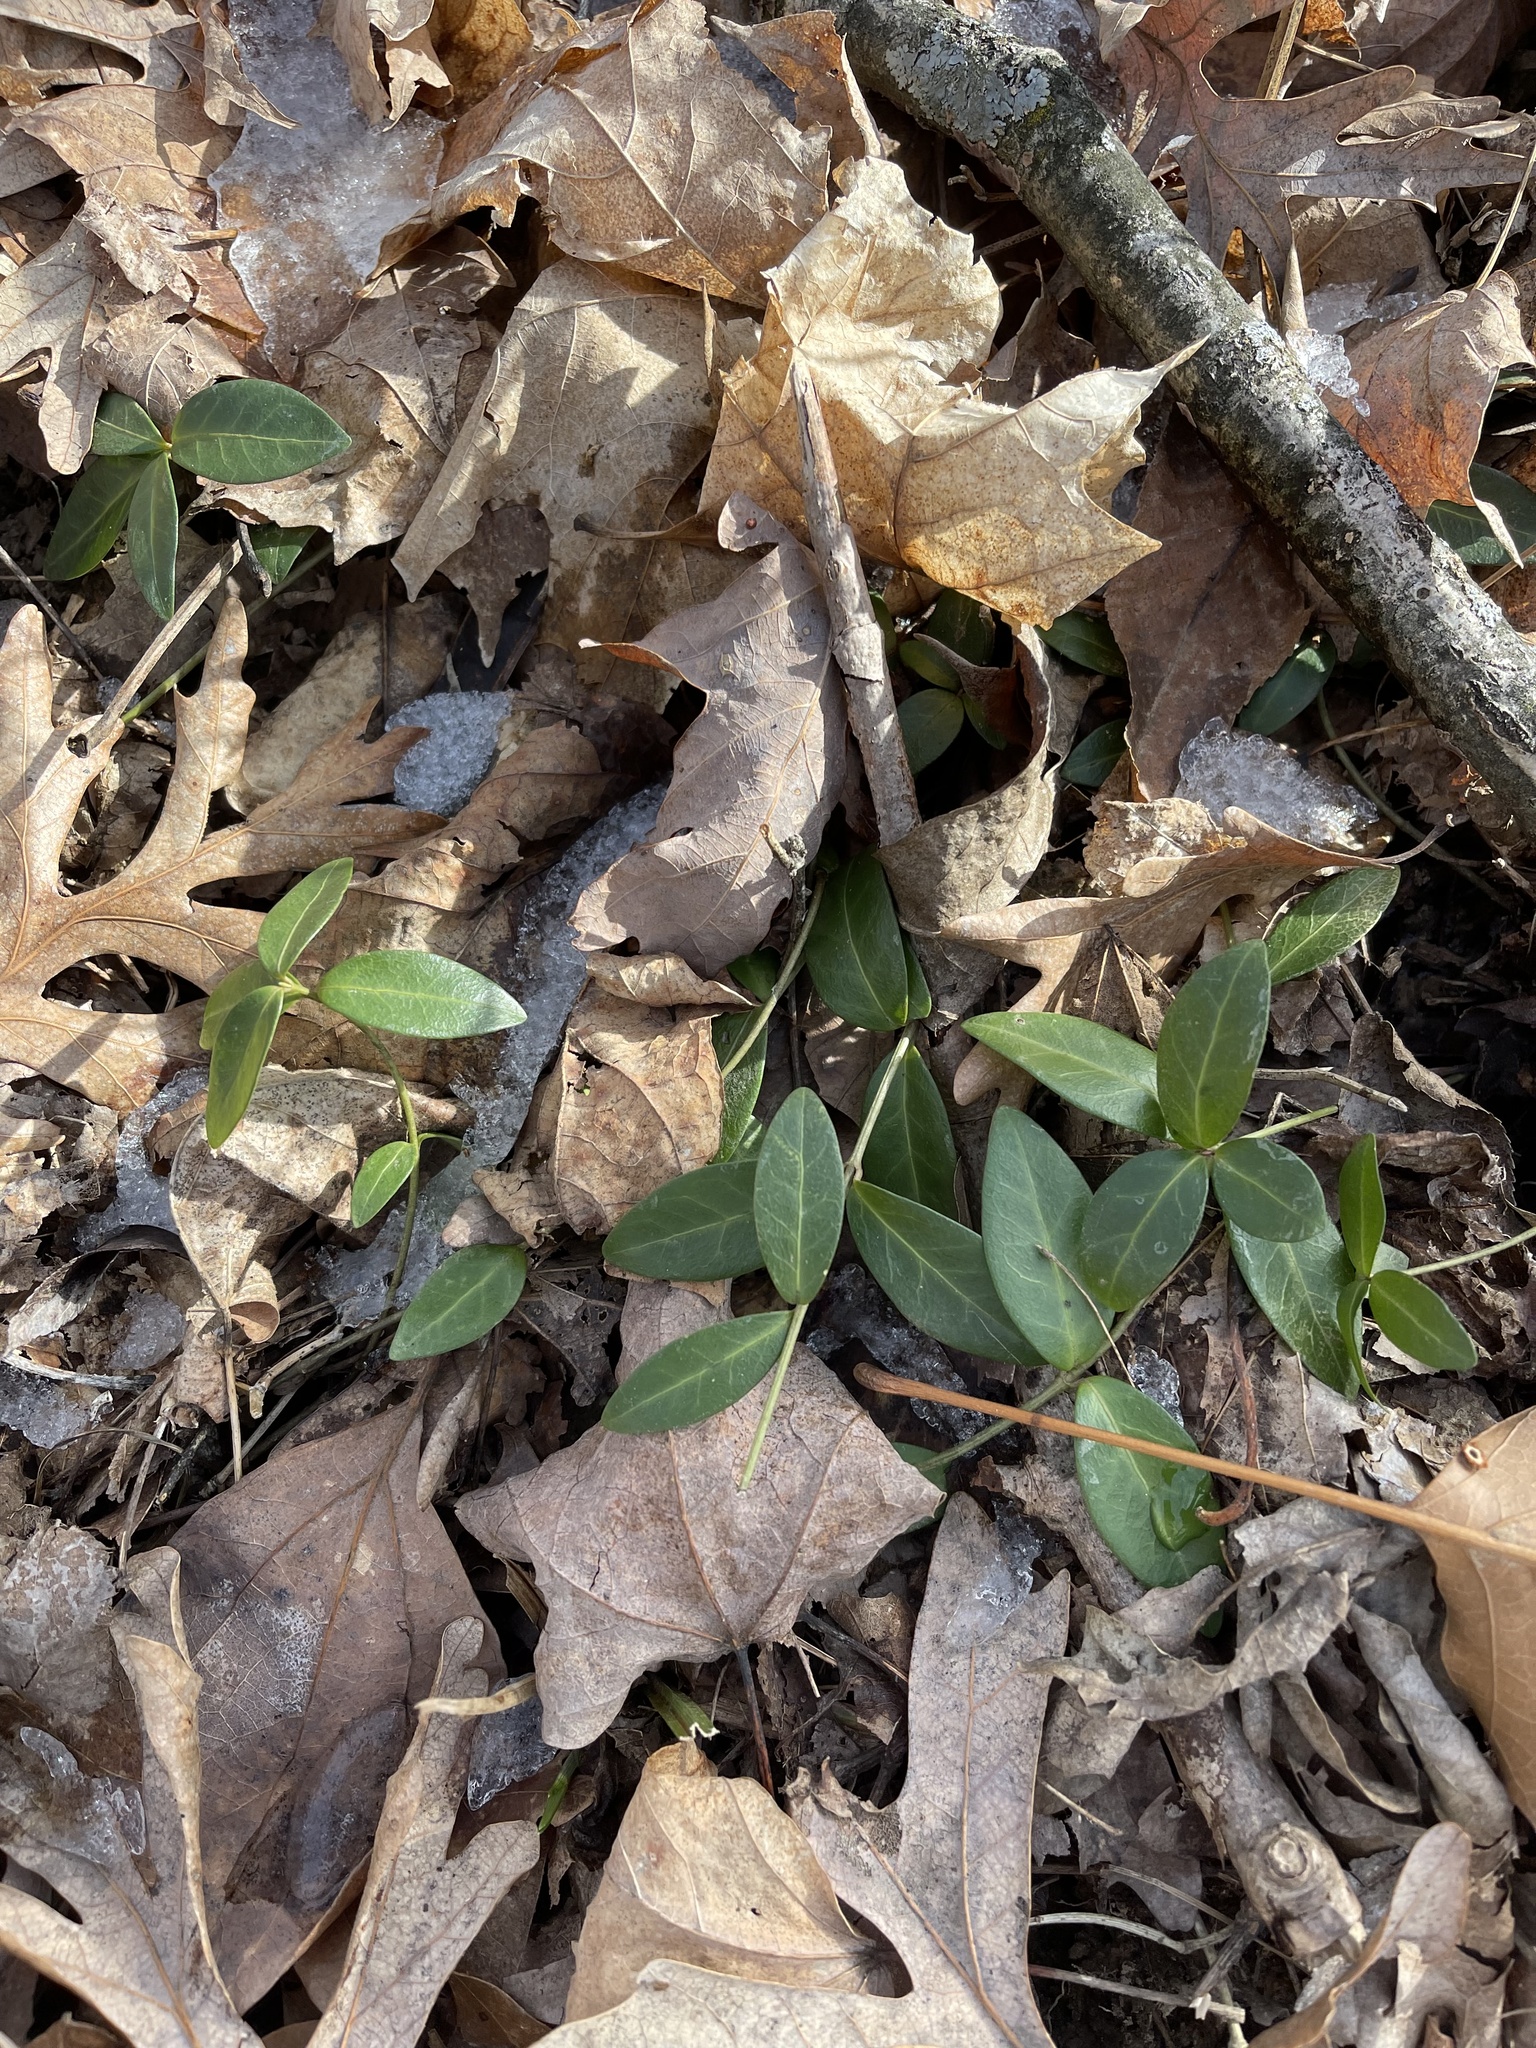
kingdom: Plantae
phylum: Tracheophyta
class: Magnoliopsida
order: Gentianales
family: Apocynaceae
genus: Vinca
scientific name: Vinca minor
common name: Lesser periwinkle
